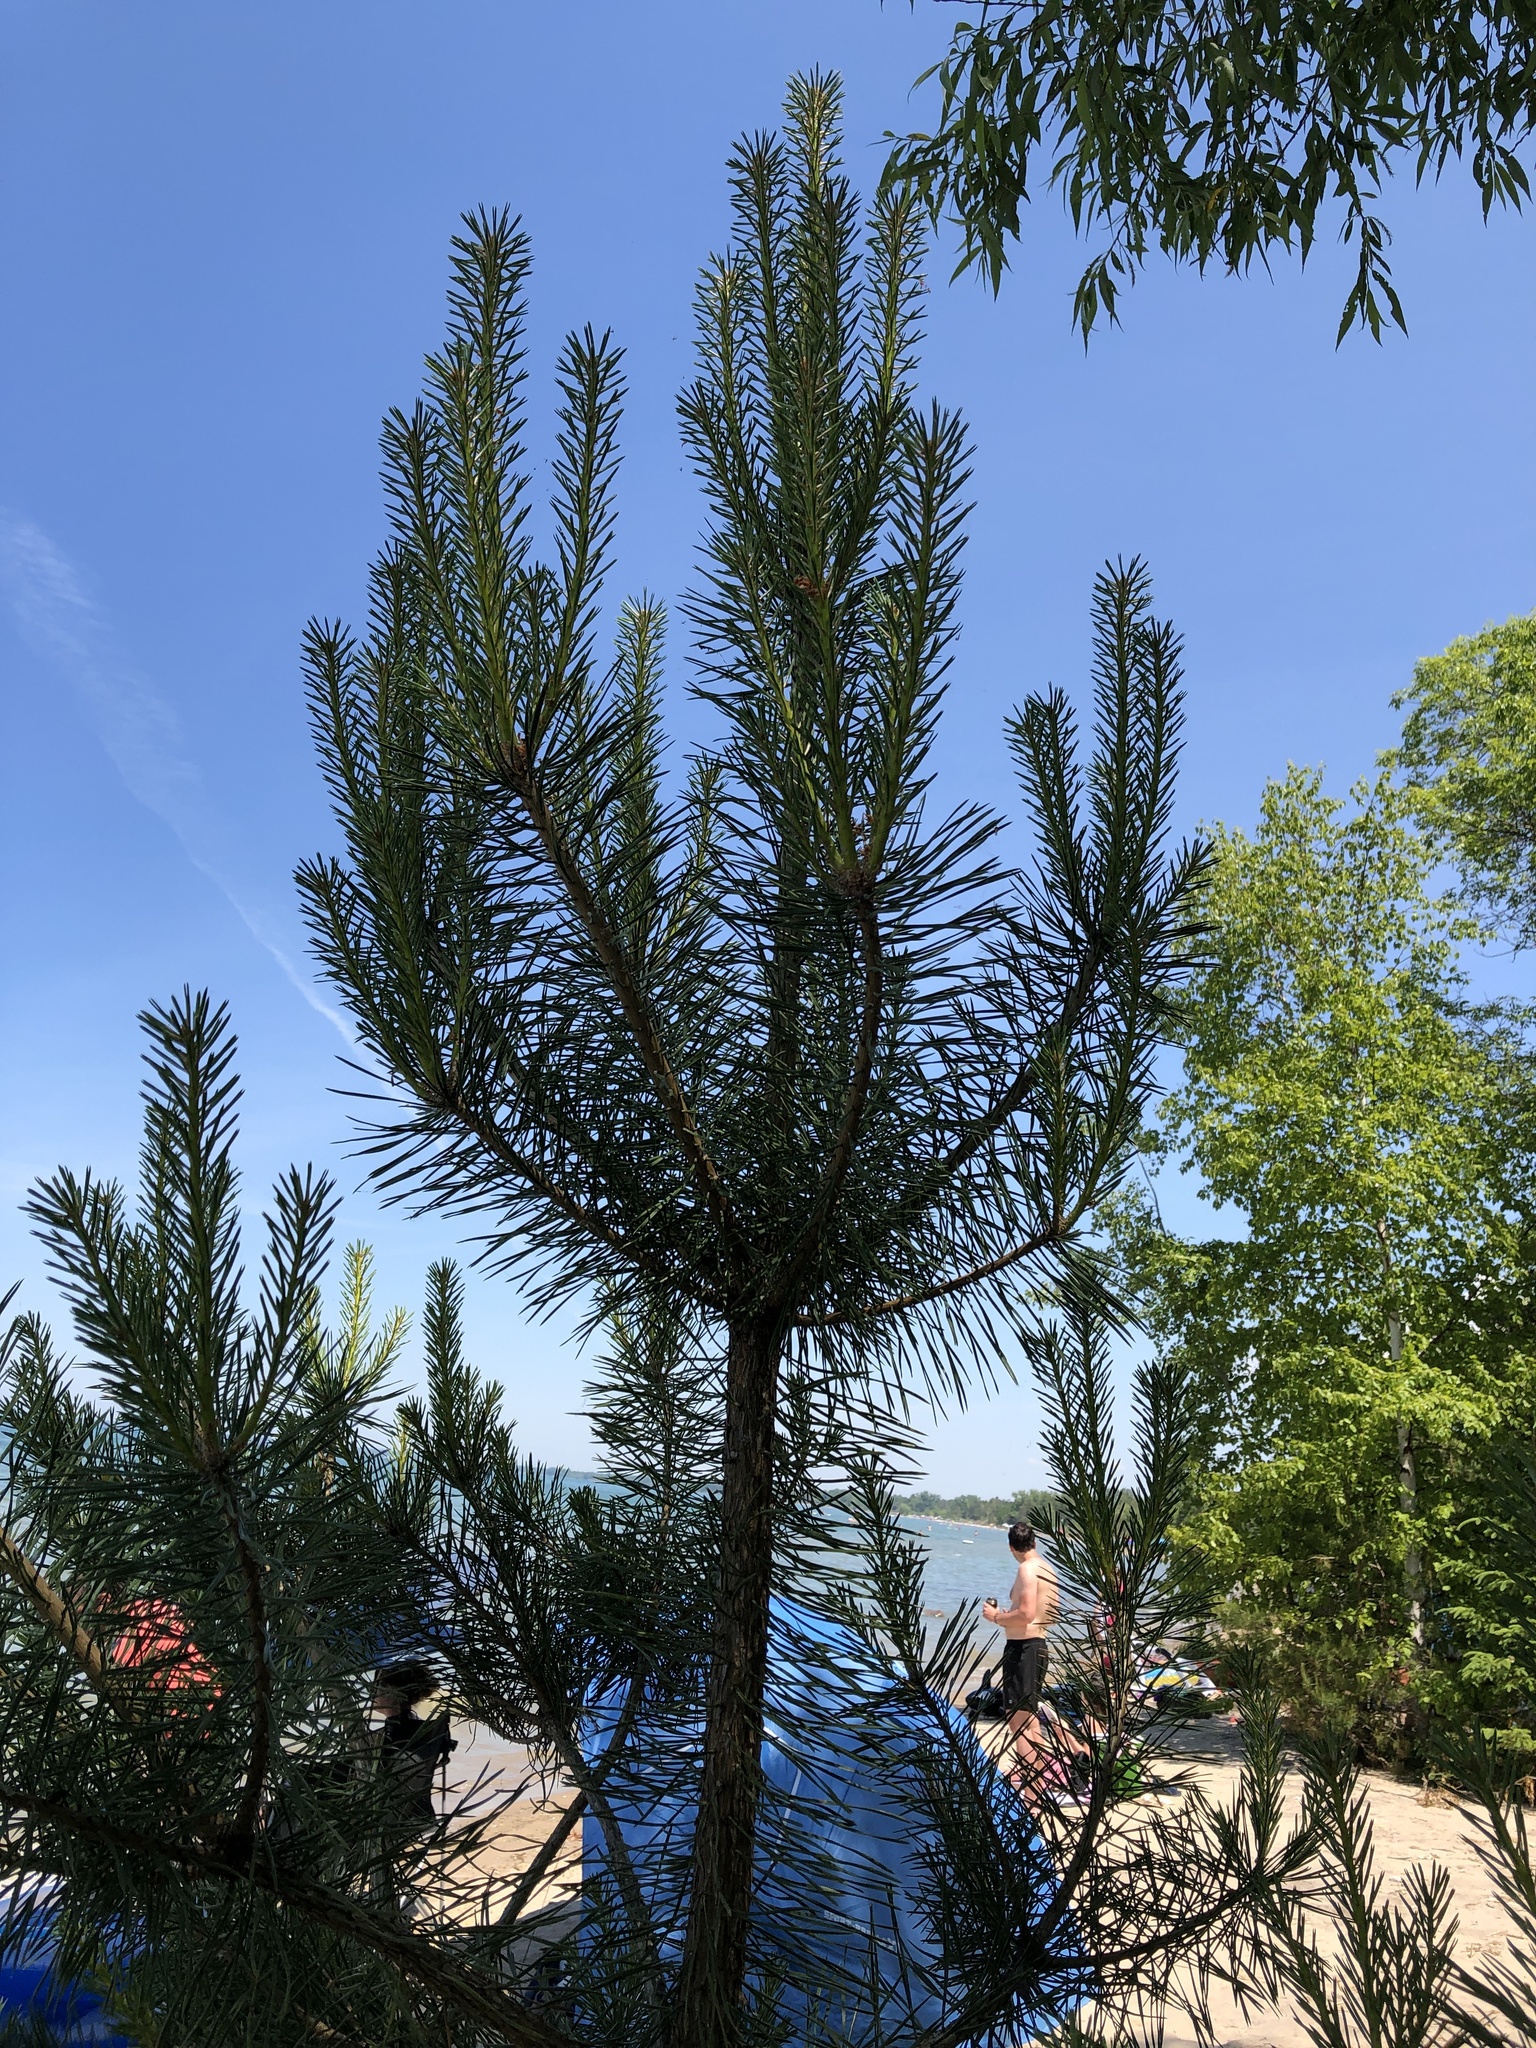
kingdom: Plantae
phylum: Tracheophyta
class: Pinopsida
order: Pinales
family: Pinaceae
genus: Pinus
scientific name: Pinus sylvestris
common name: Scots pine
